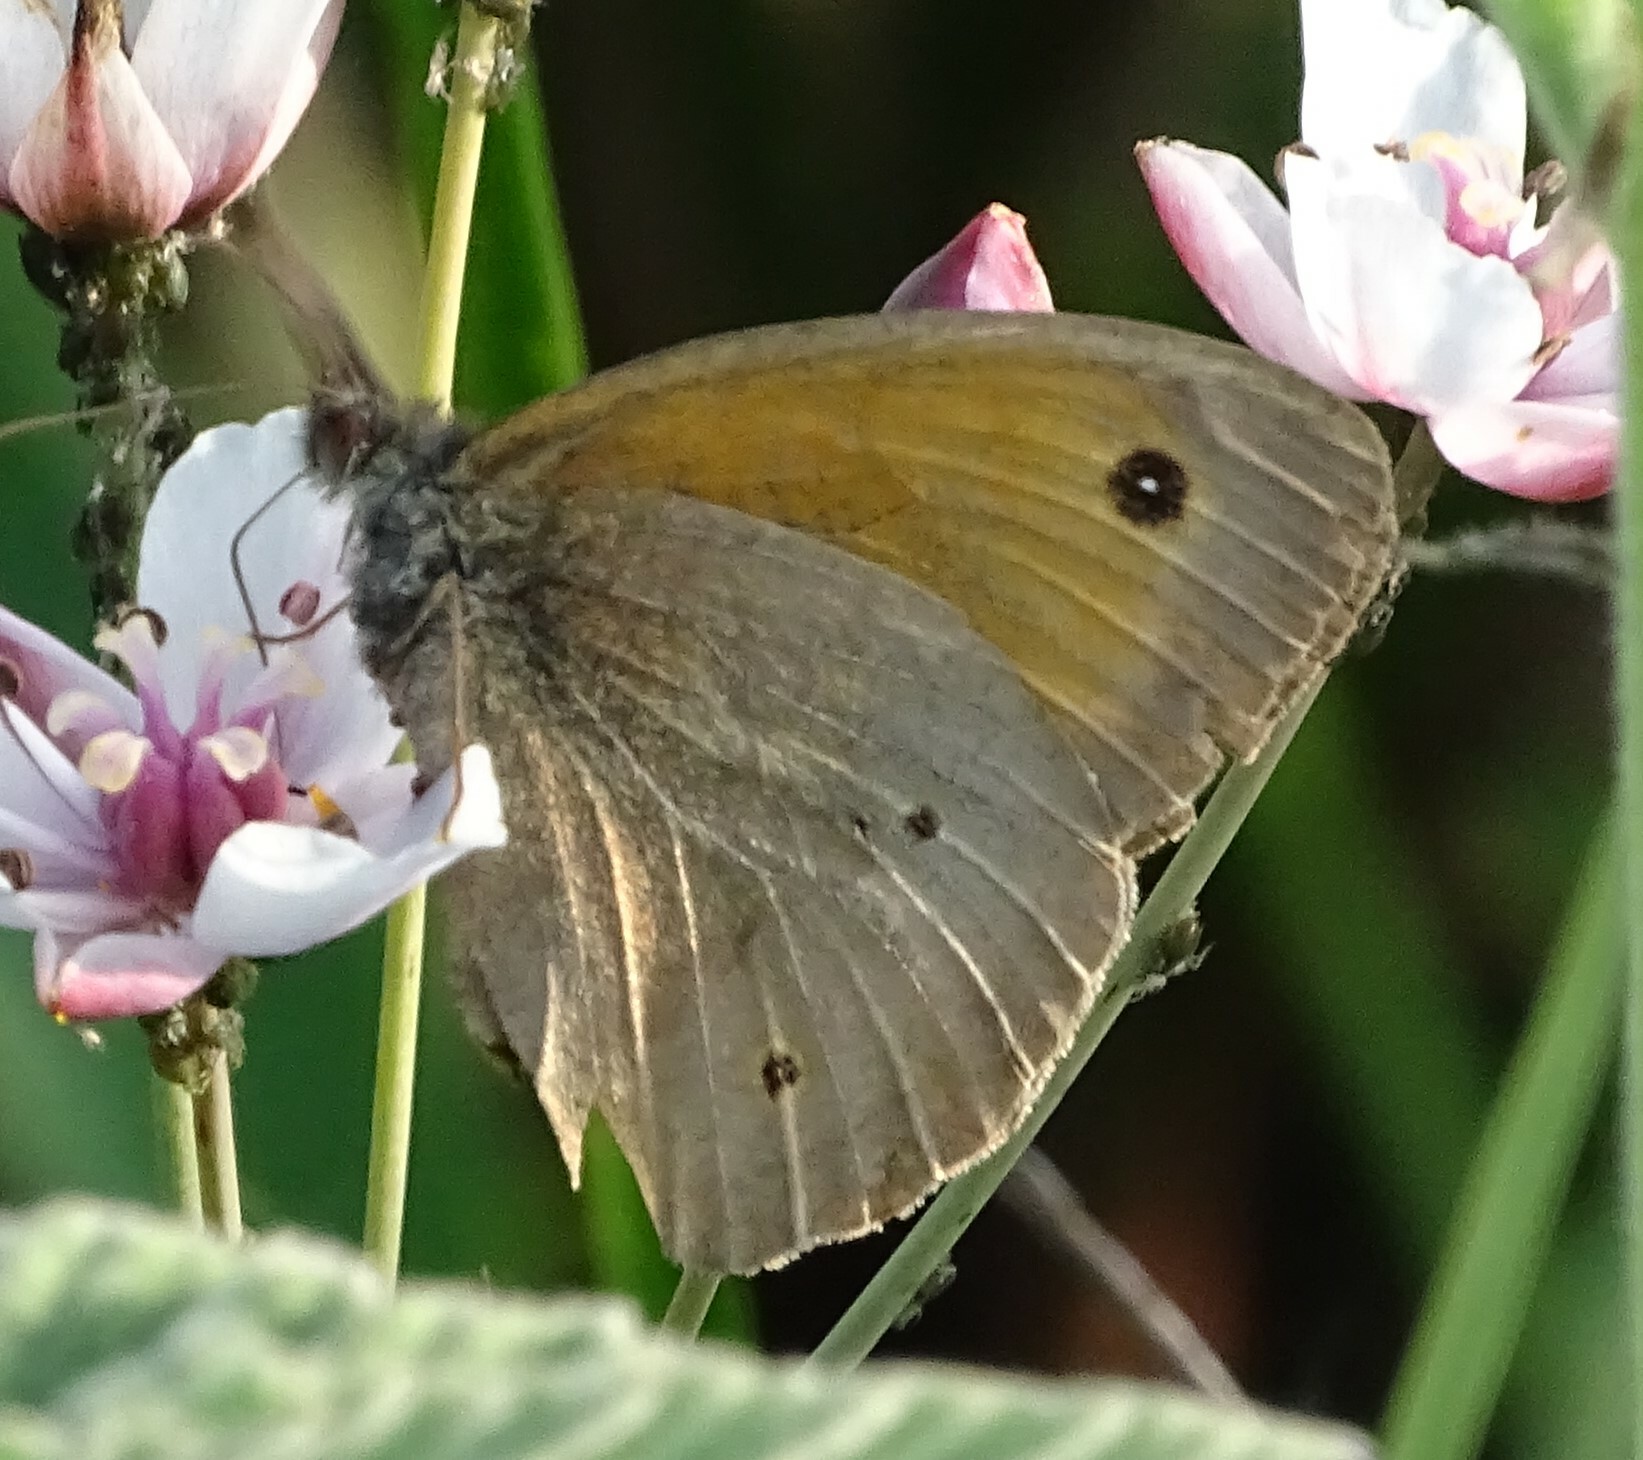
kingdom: Animalia
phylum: Arthropoda
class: Insecta
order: Lepidoptera
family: Nymphalidae
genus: Maniola
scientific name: Maniola jurtina
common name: Meadow brown
